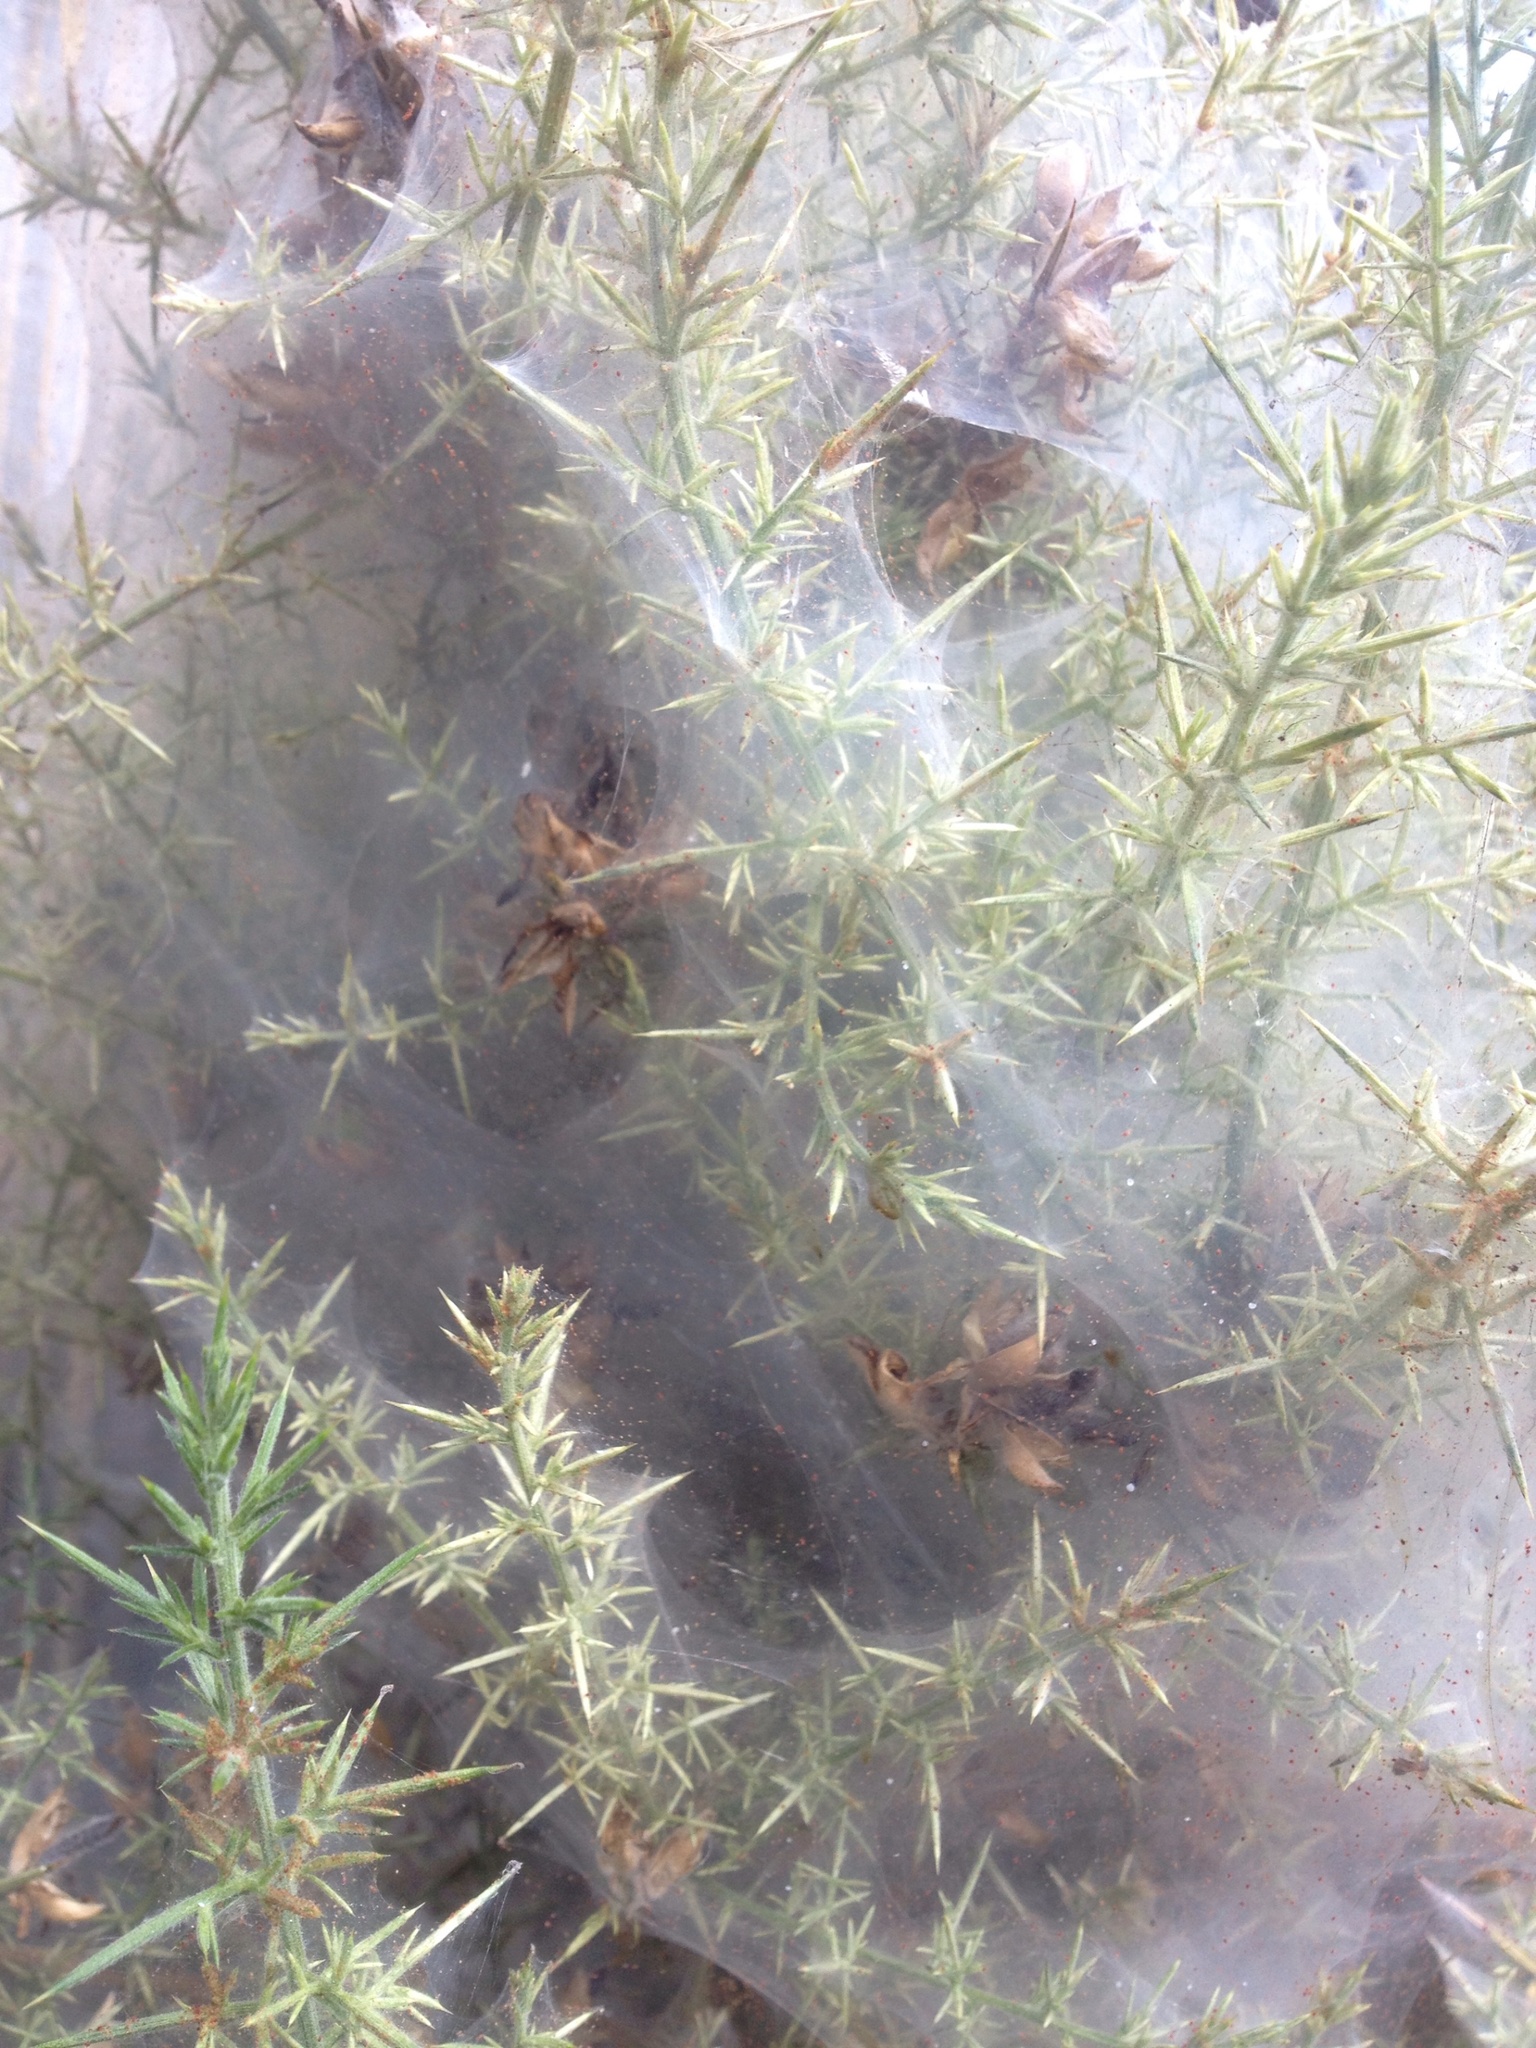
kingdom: Animalia
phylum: Arthropoda
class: Arachnida
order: Trombidiformes
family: Tetranychidae
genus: Tetranychus
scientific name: Tetranychus lintearius
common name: Gorse spider mite
